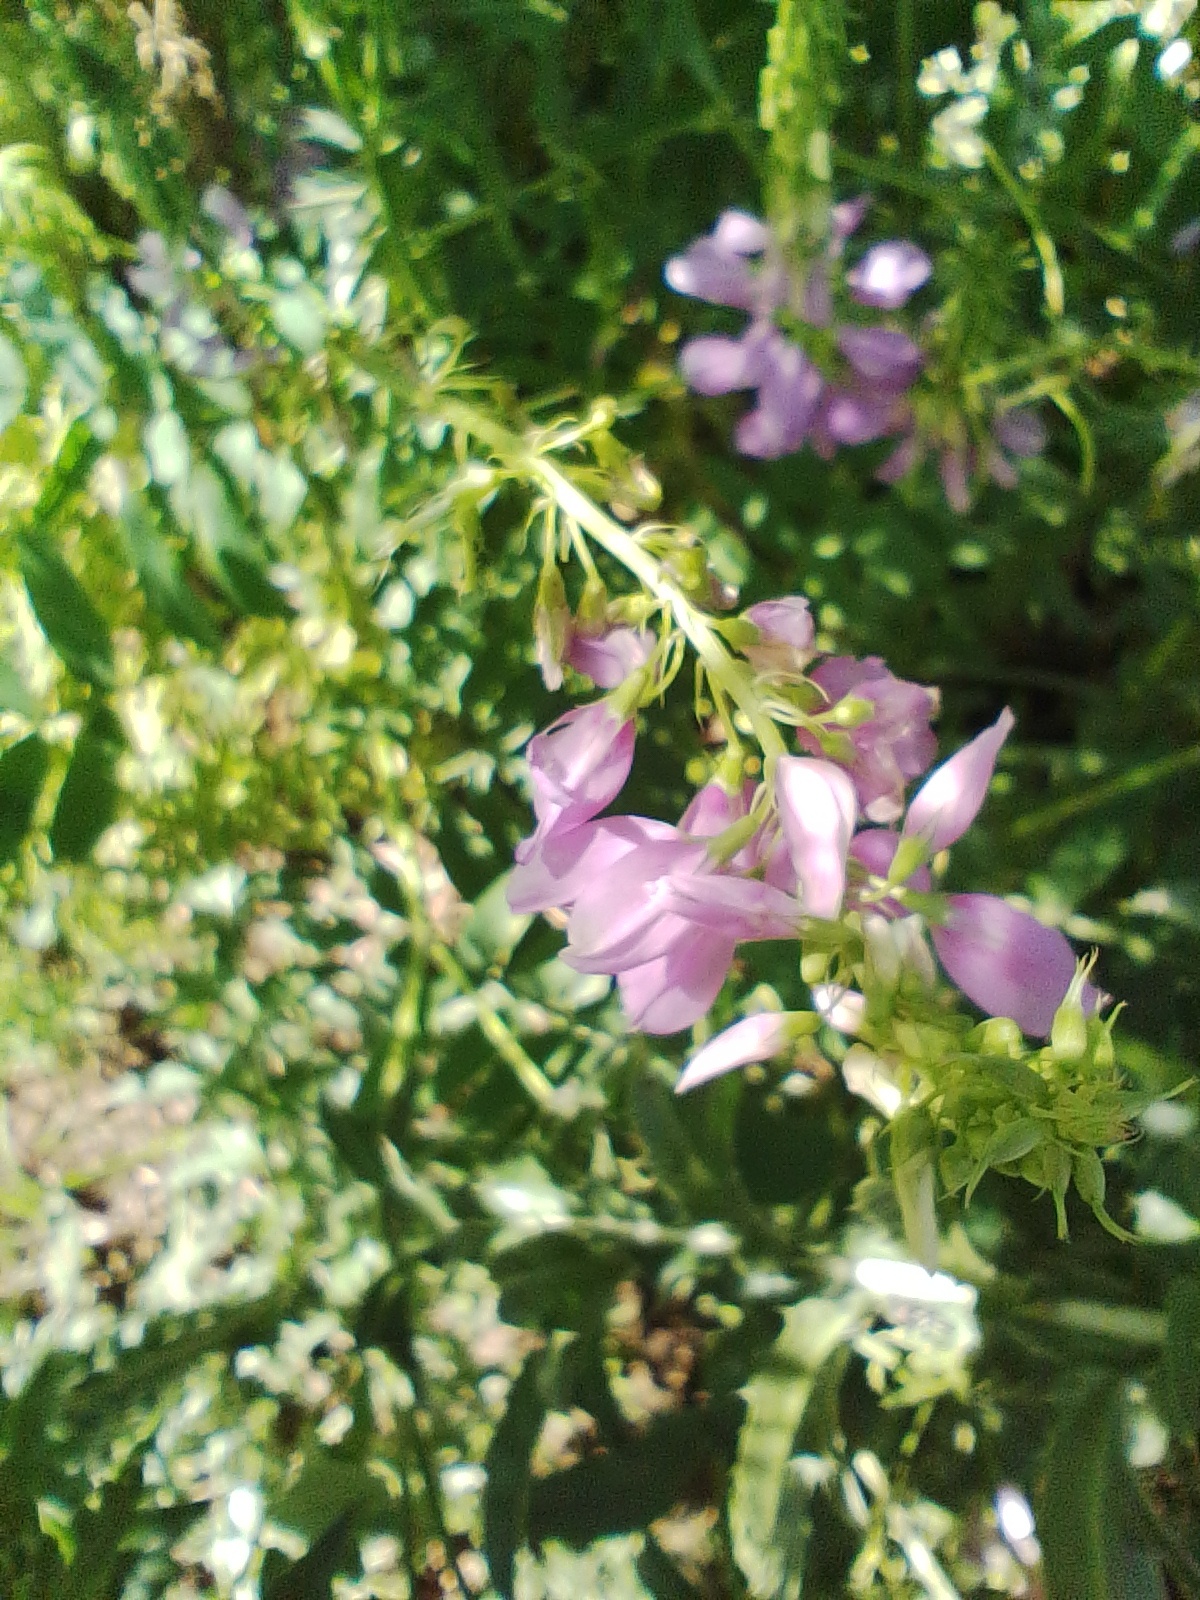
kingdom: Plantae
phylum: Tracheophyta
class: Magnoliopsida
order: Fabales
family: Fabaceae
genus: Galega
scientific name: Galega officinalis
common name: Goat's-rue
